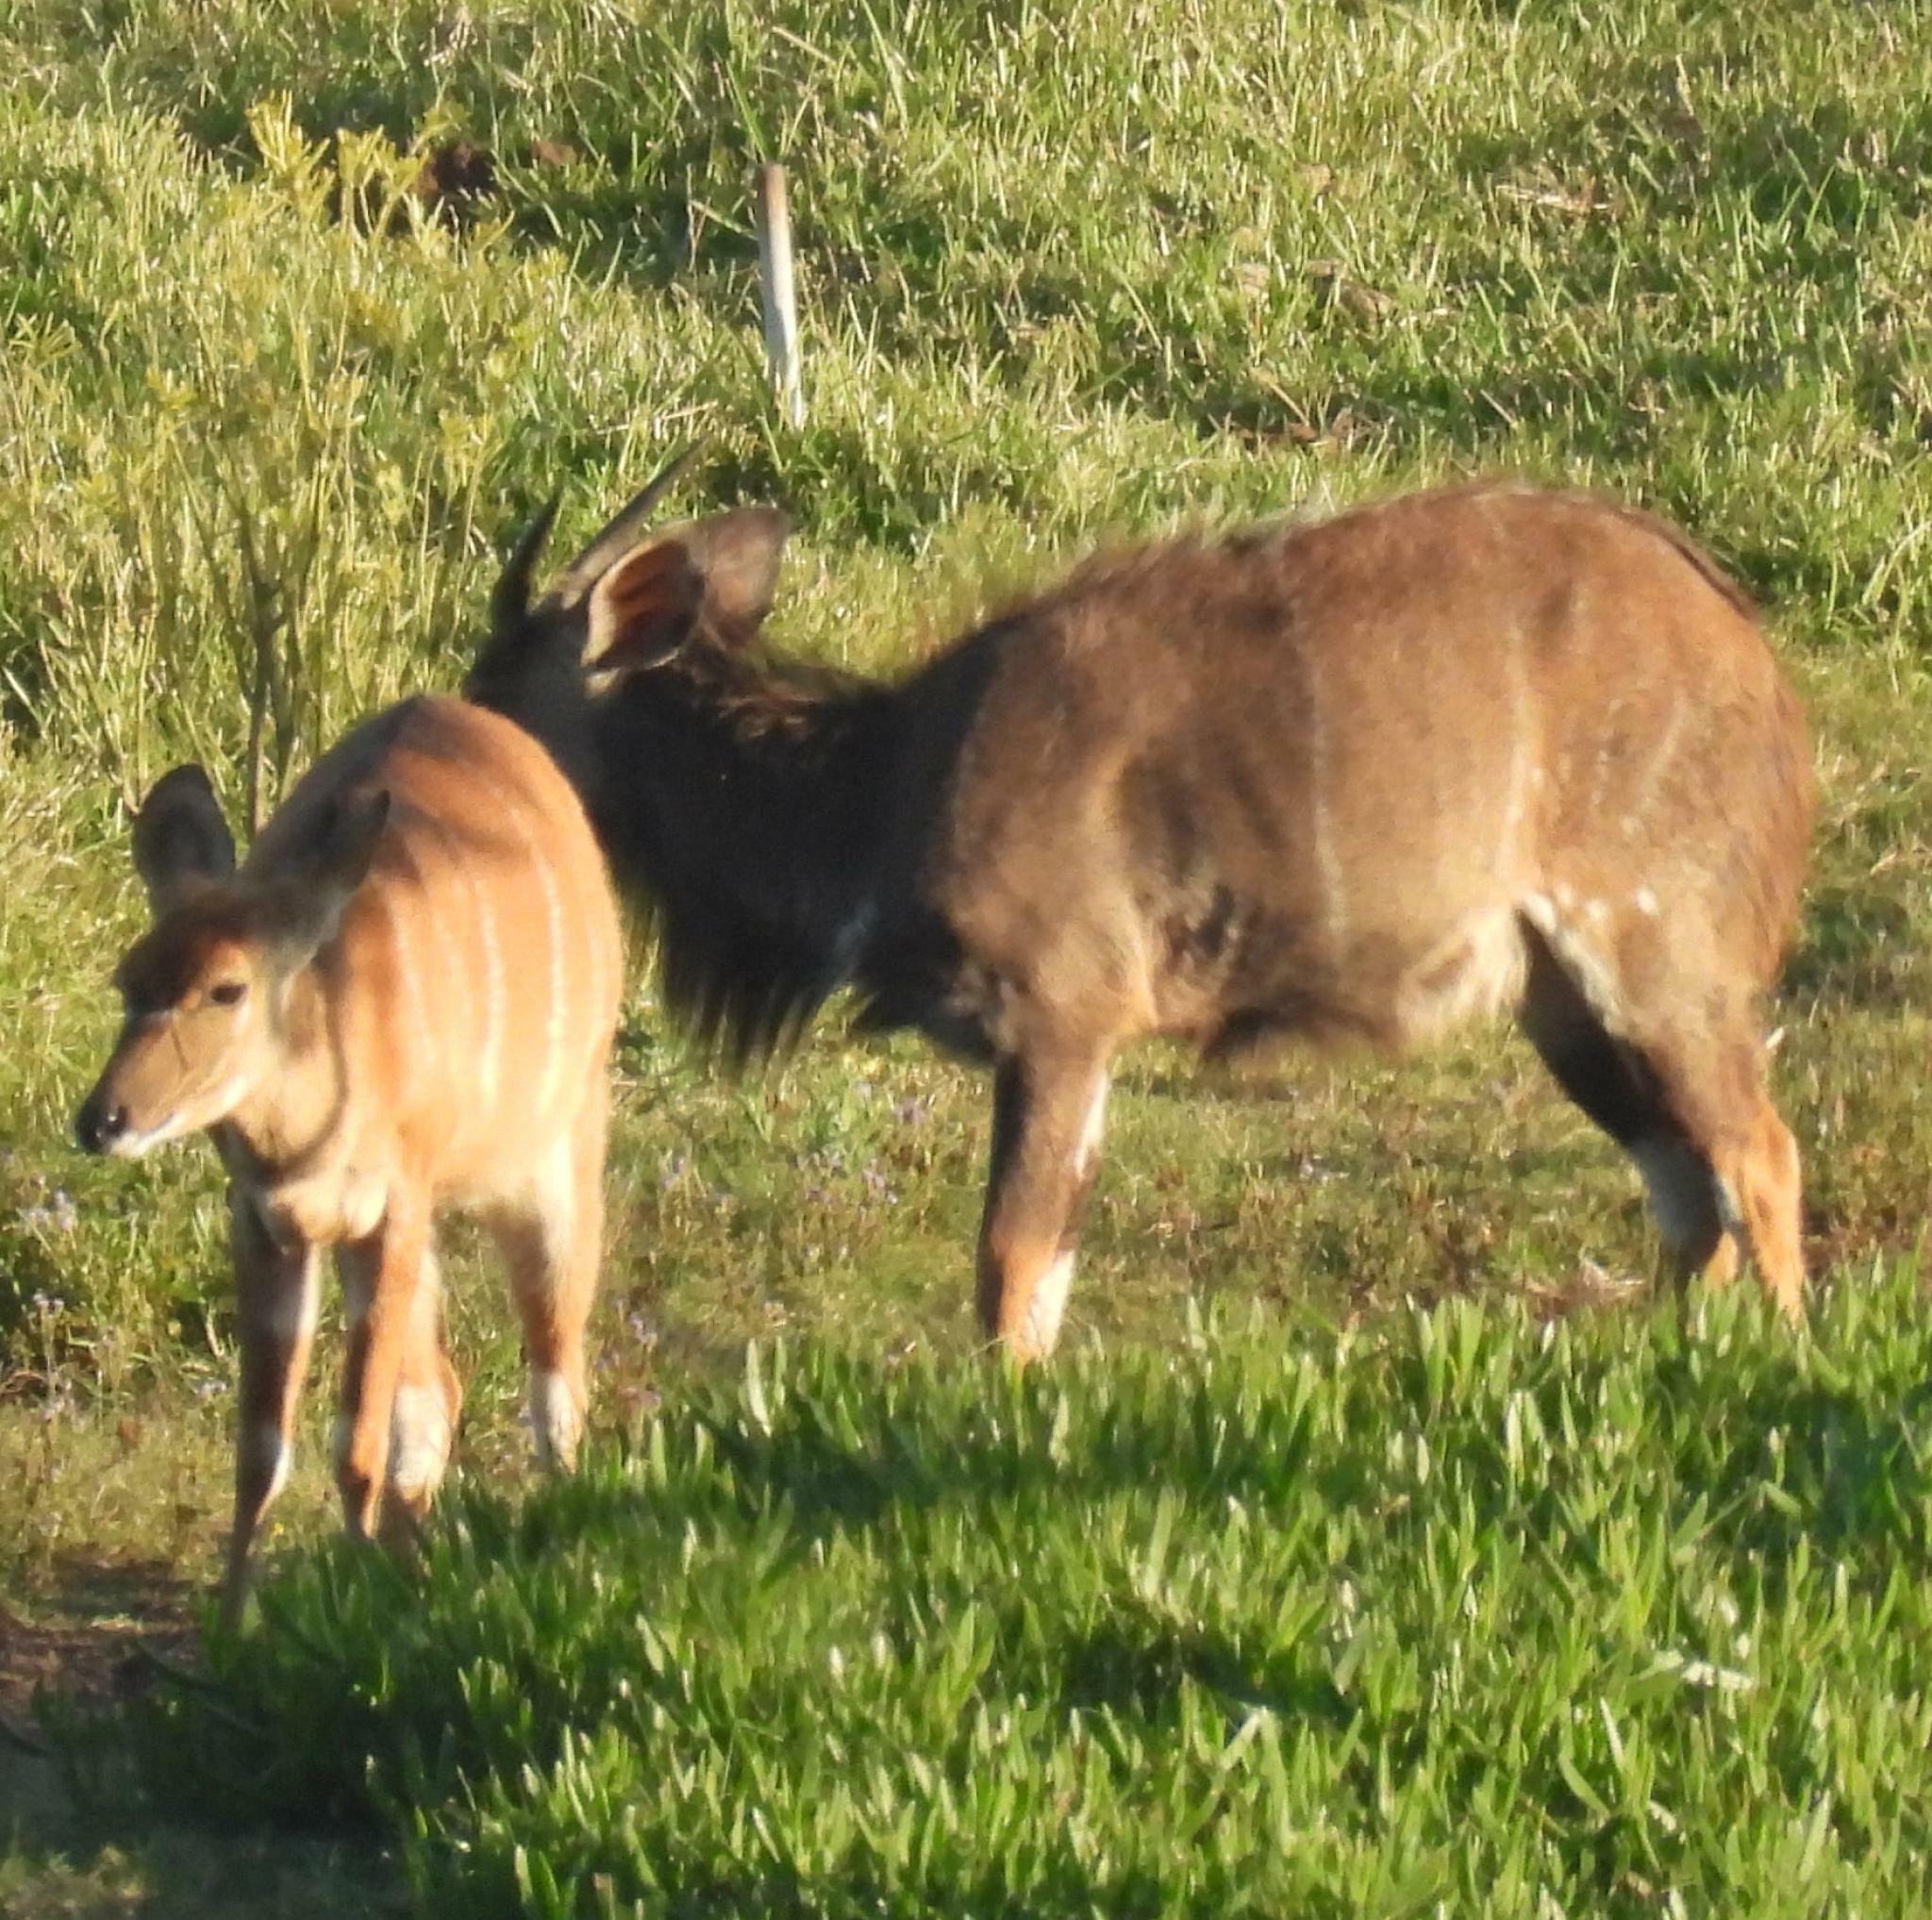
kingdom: Animalia
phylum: Chordata
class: Mammalia
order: Artiodactyla
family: Bovidae
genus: Tragelaphus
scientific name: Tragelaphus angasii
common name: Nyala
